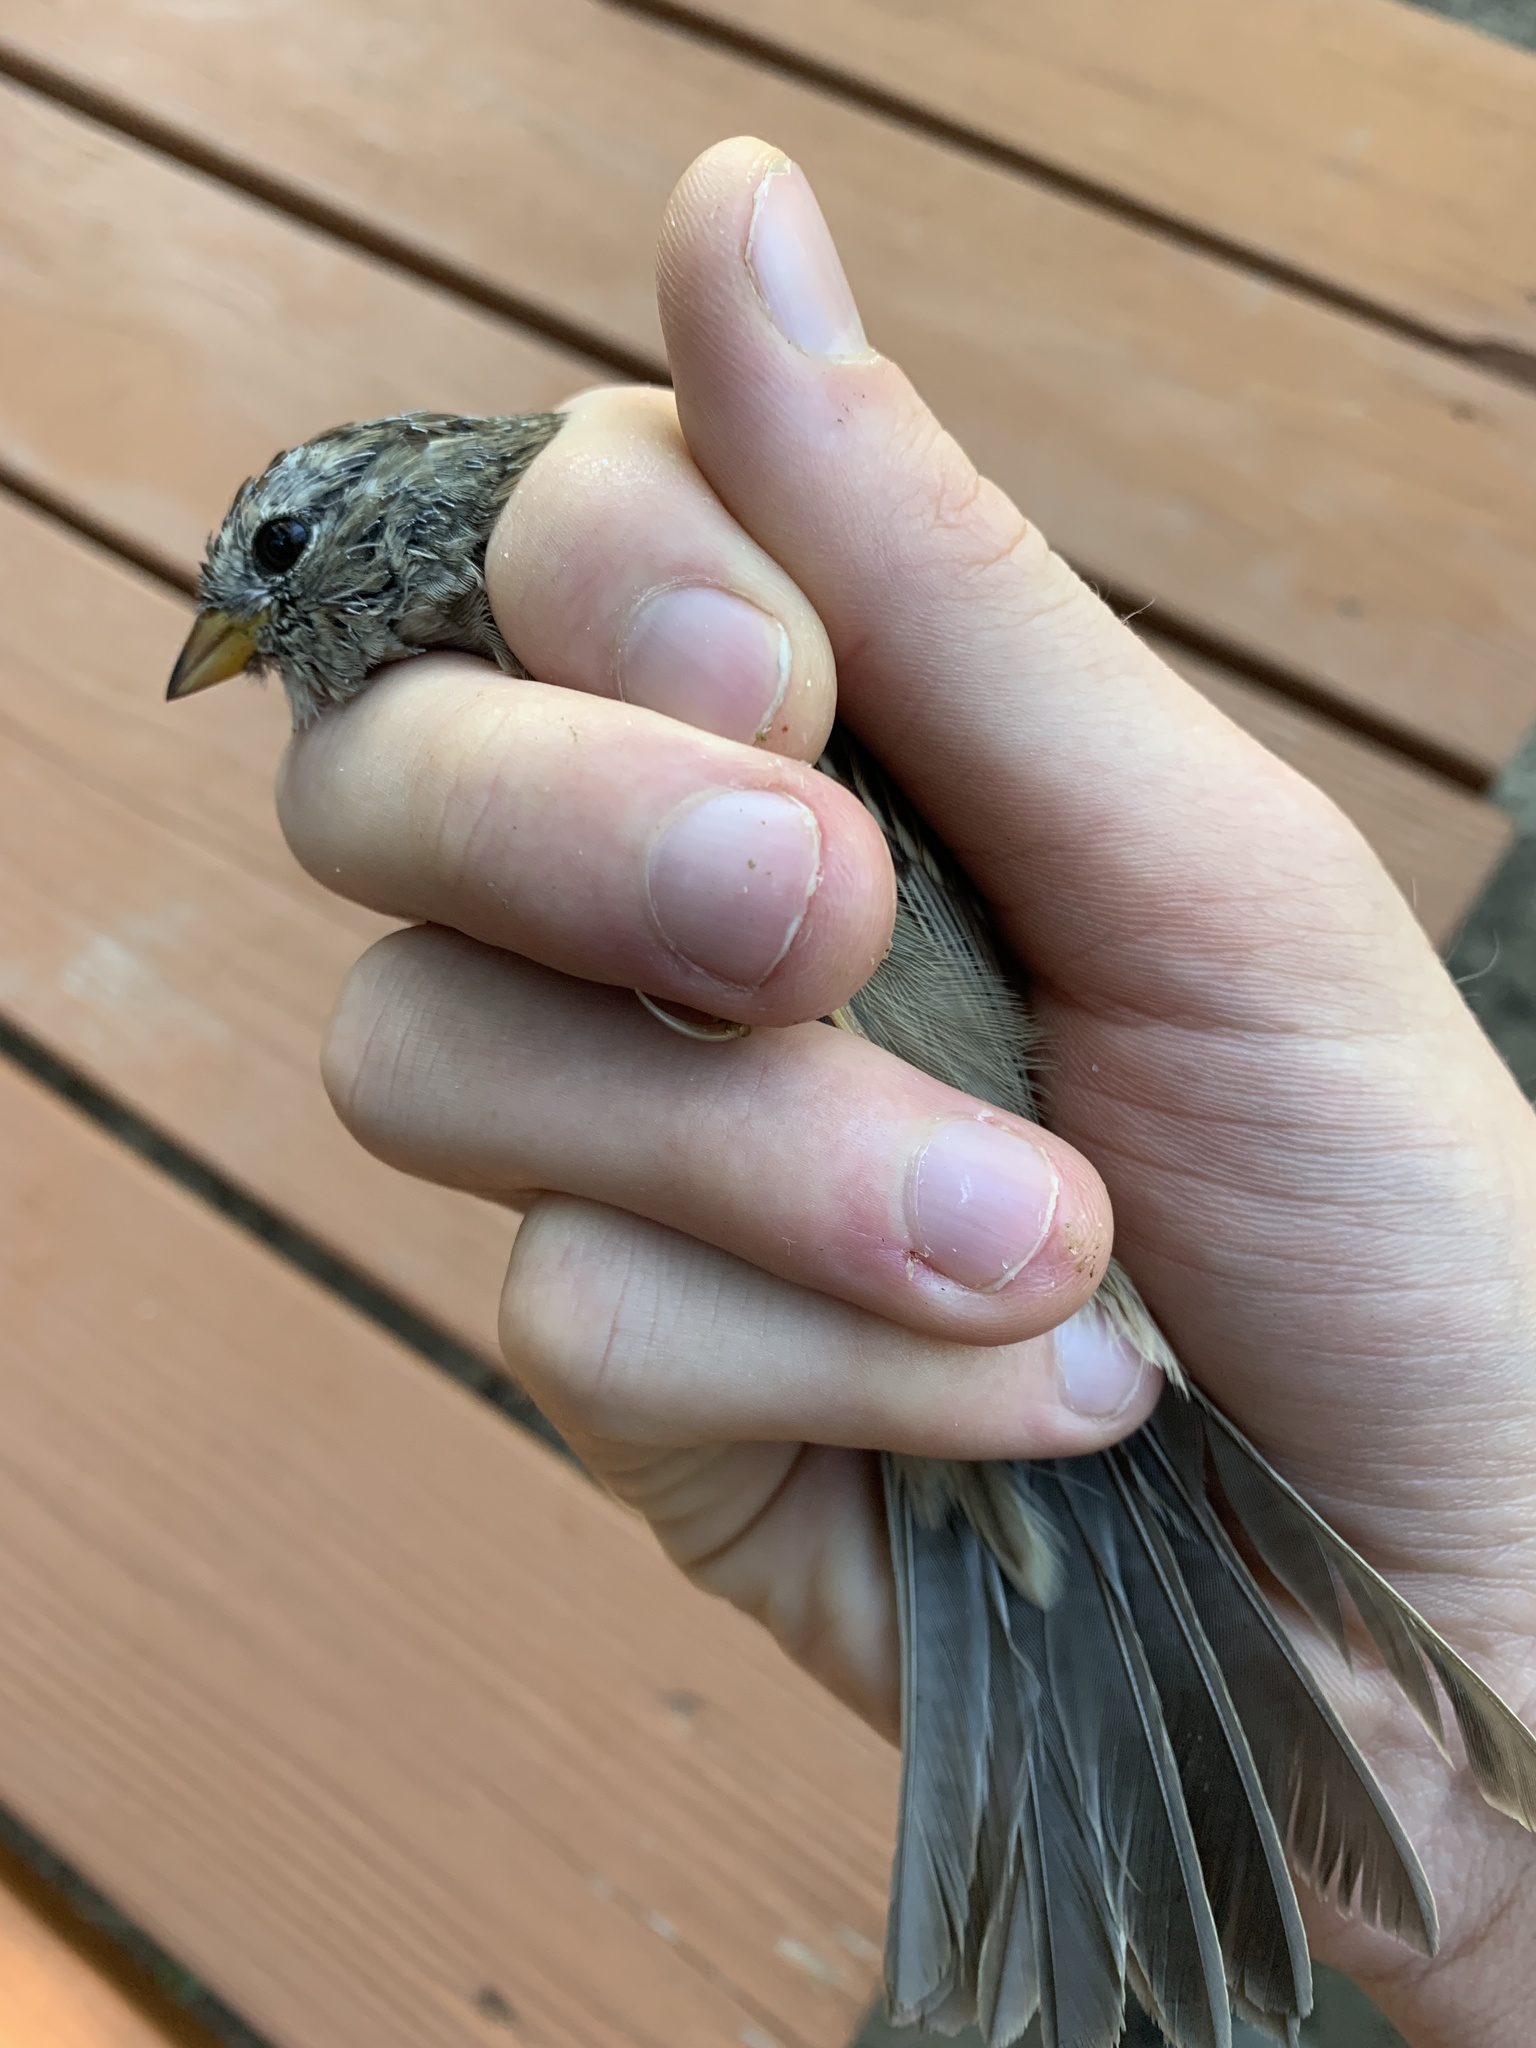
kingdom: Animalia
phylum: Chordata
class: Aves
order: Passeriformes
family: Passerellidae
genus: Zonotrichia
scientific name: Zonotrichia leucophrys
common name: White-crowned sparrow
